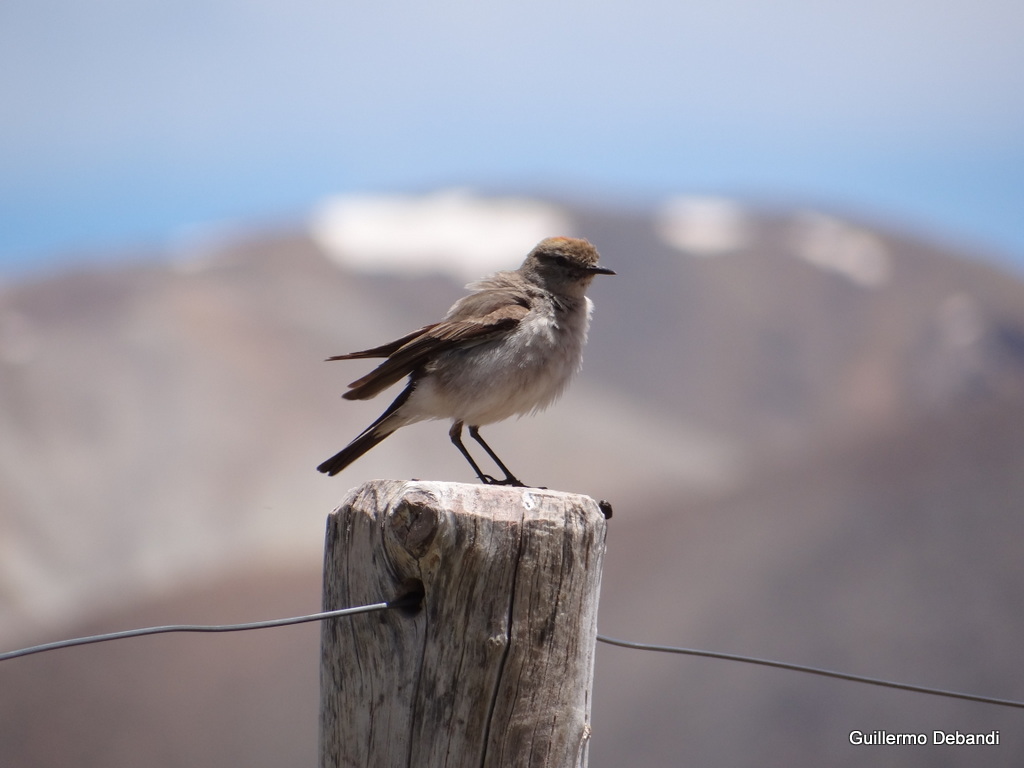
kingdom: Animalia
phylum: Chordata
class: Aves
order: Passeriformes
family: Tyrannidae
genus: Muscisaxicola
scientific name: Muscisaxicola albilora
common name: White-browed ground tyrant
